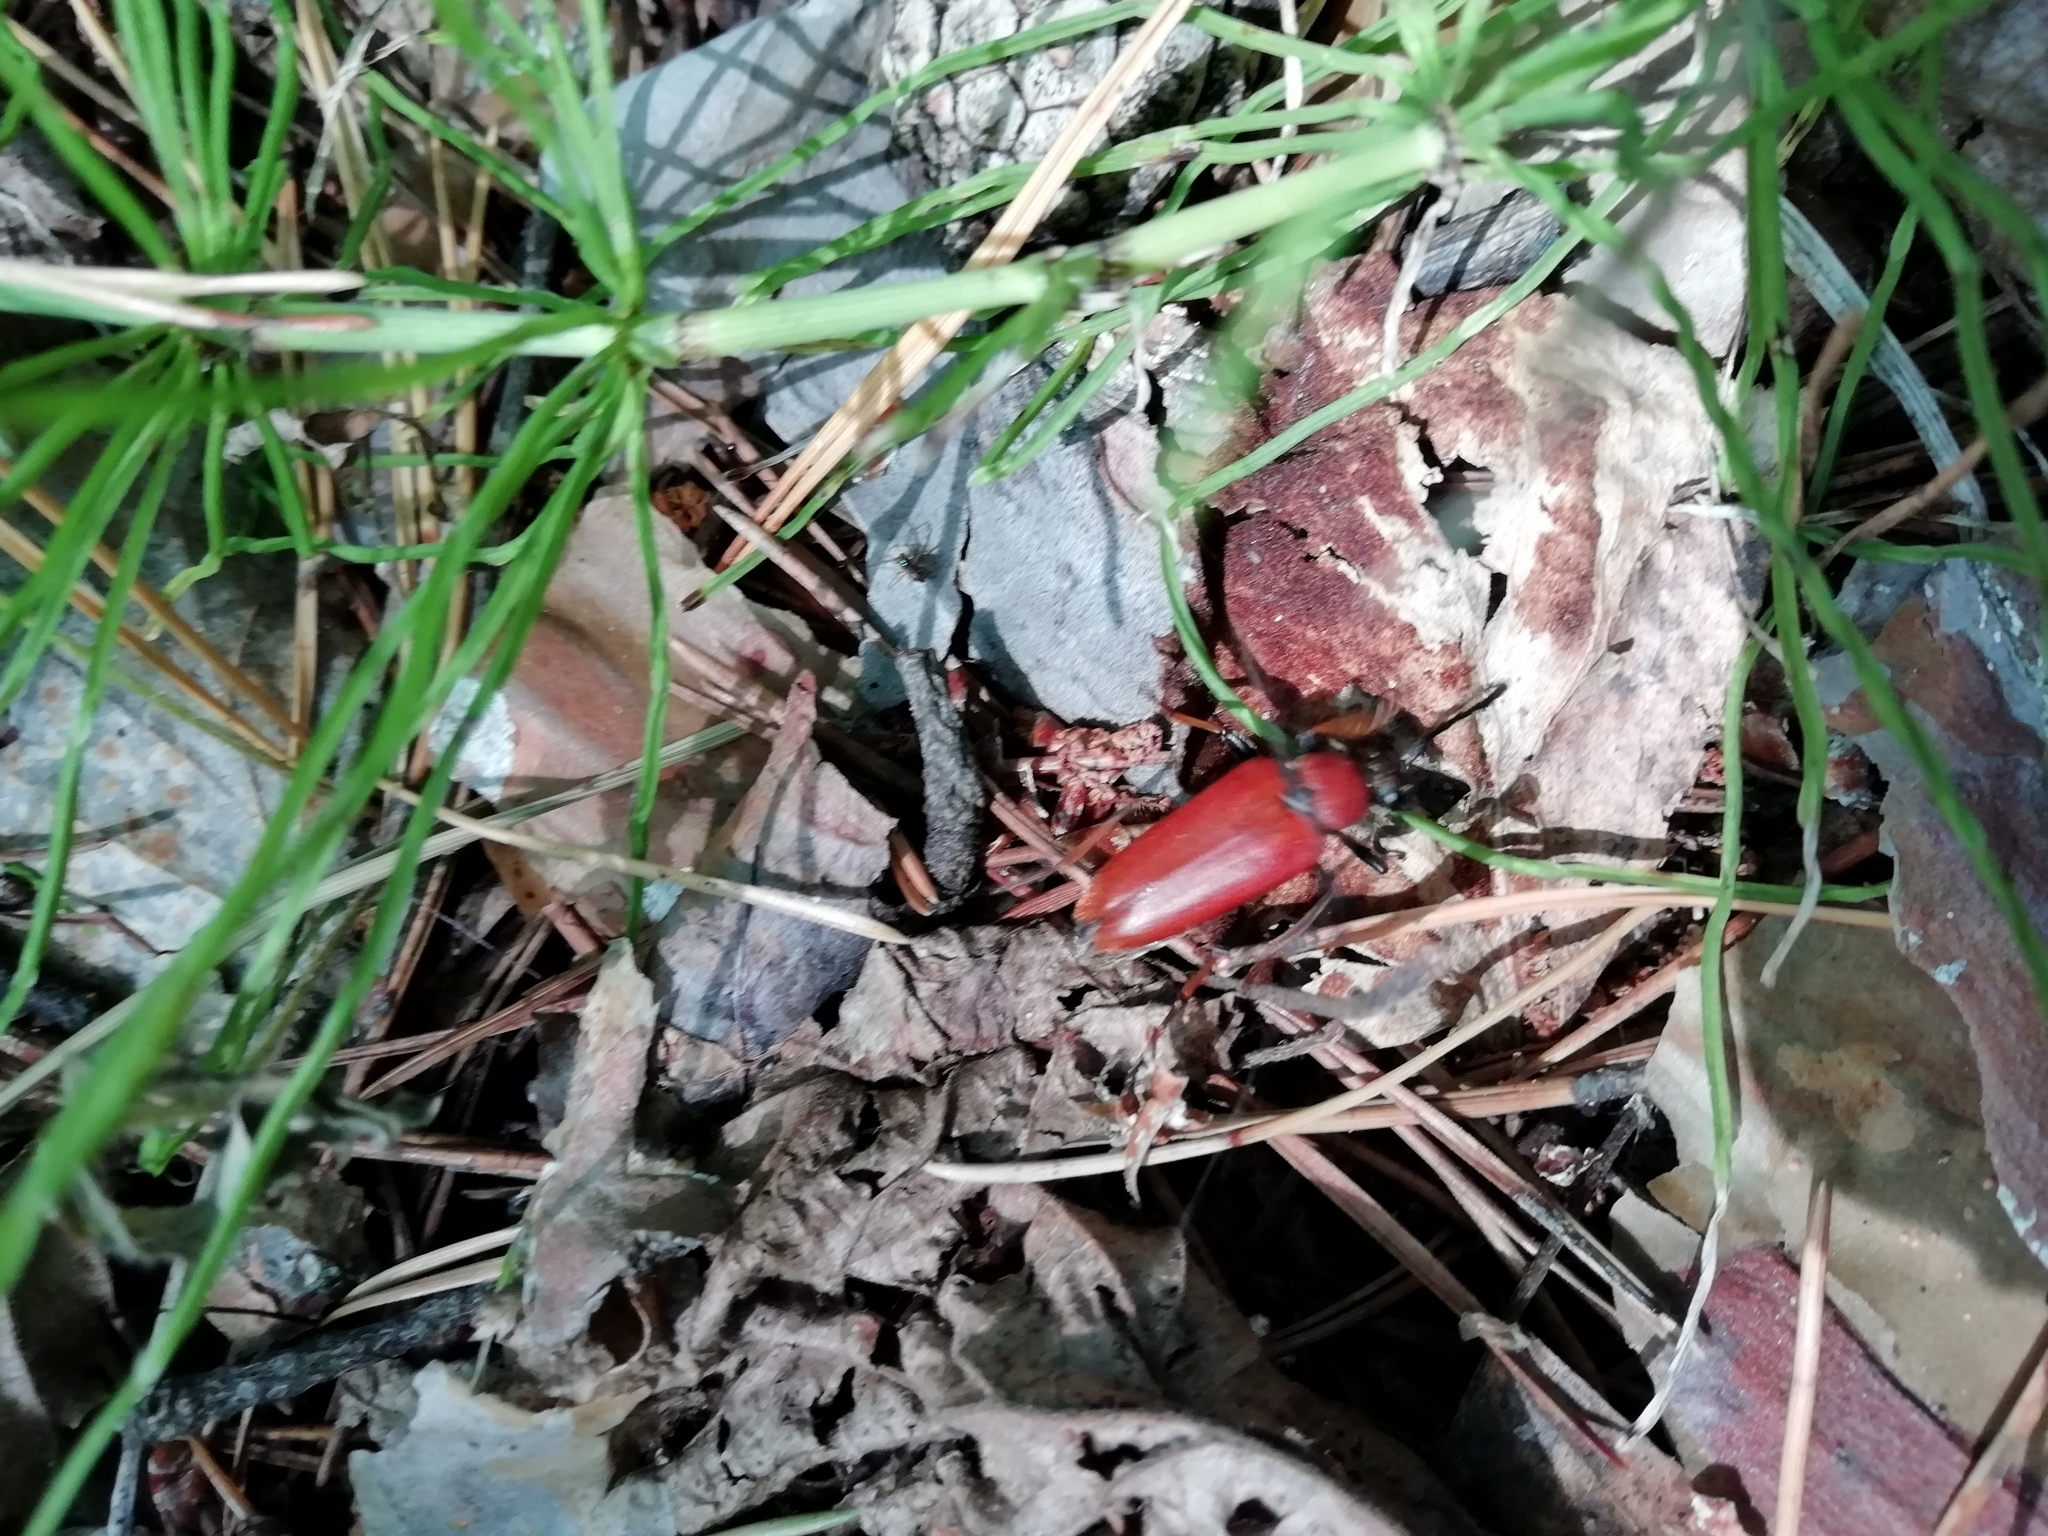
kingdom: Animalia
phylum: Arthropoda
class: Insecta
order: Coleoptera
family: Cerambycidae
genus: Stictoleptura
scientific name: Stictoleptura rubra
